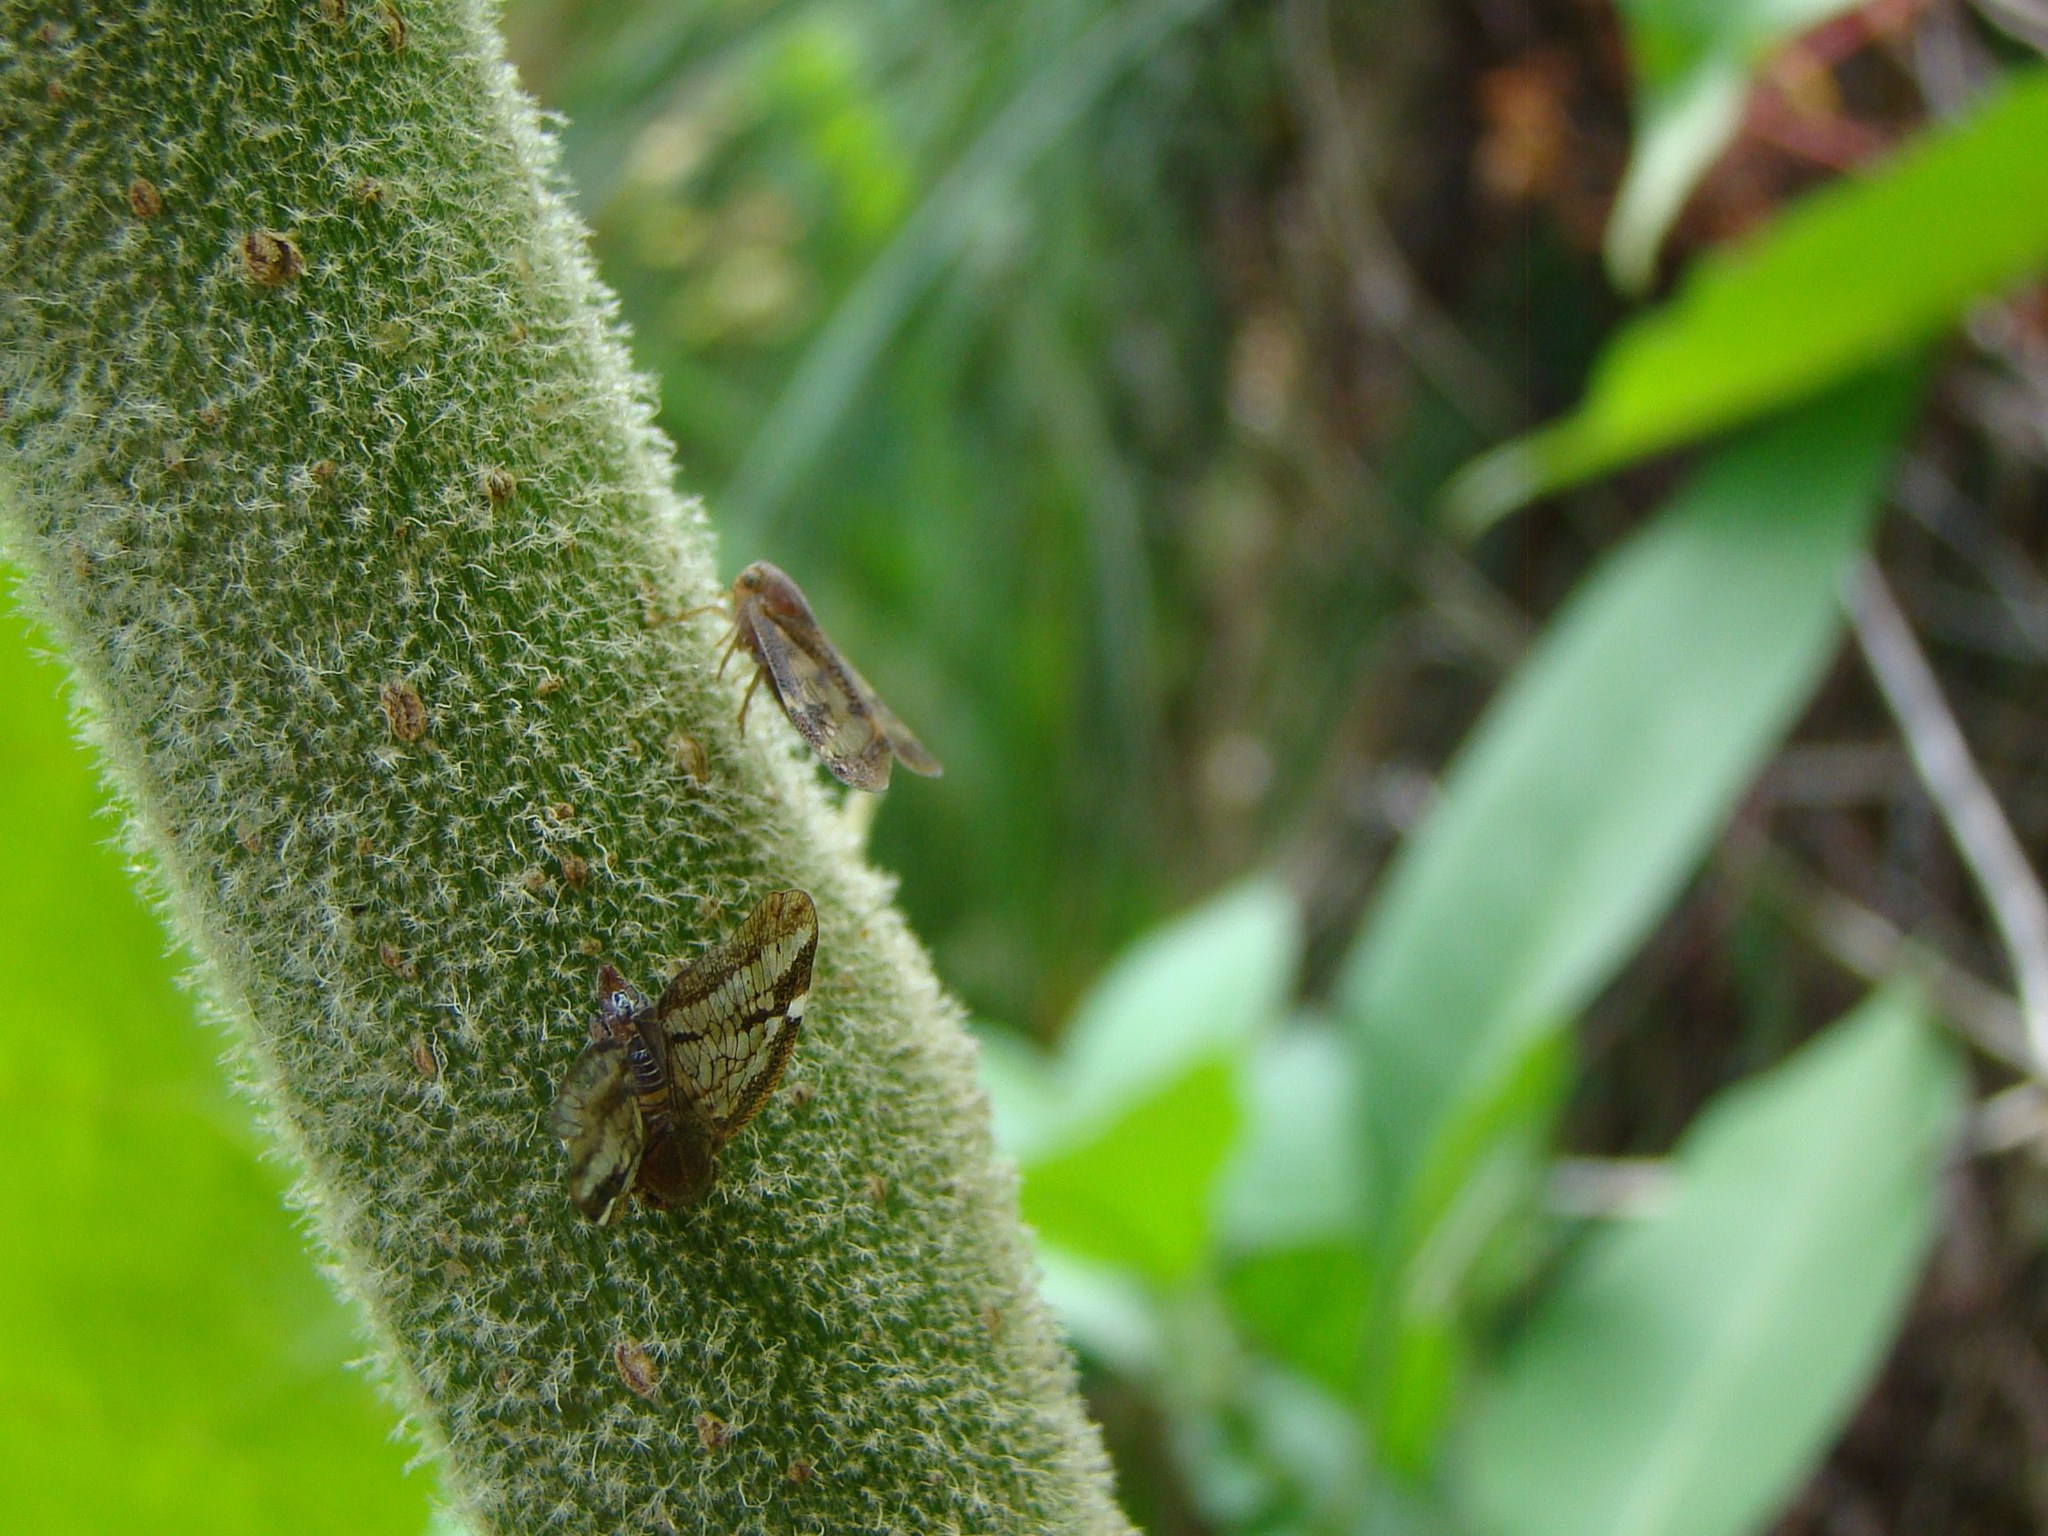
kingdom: Animalia
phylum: Arthropoda
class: Insecta
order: Hemiptera
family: Ricaniidae
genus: Scolypopa
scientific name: Scolypopa australis
